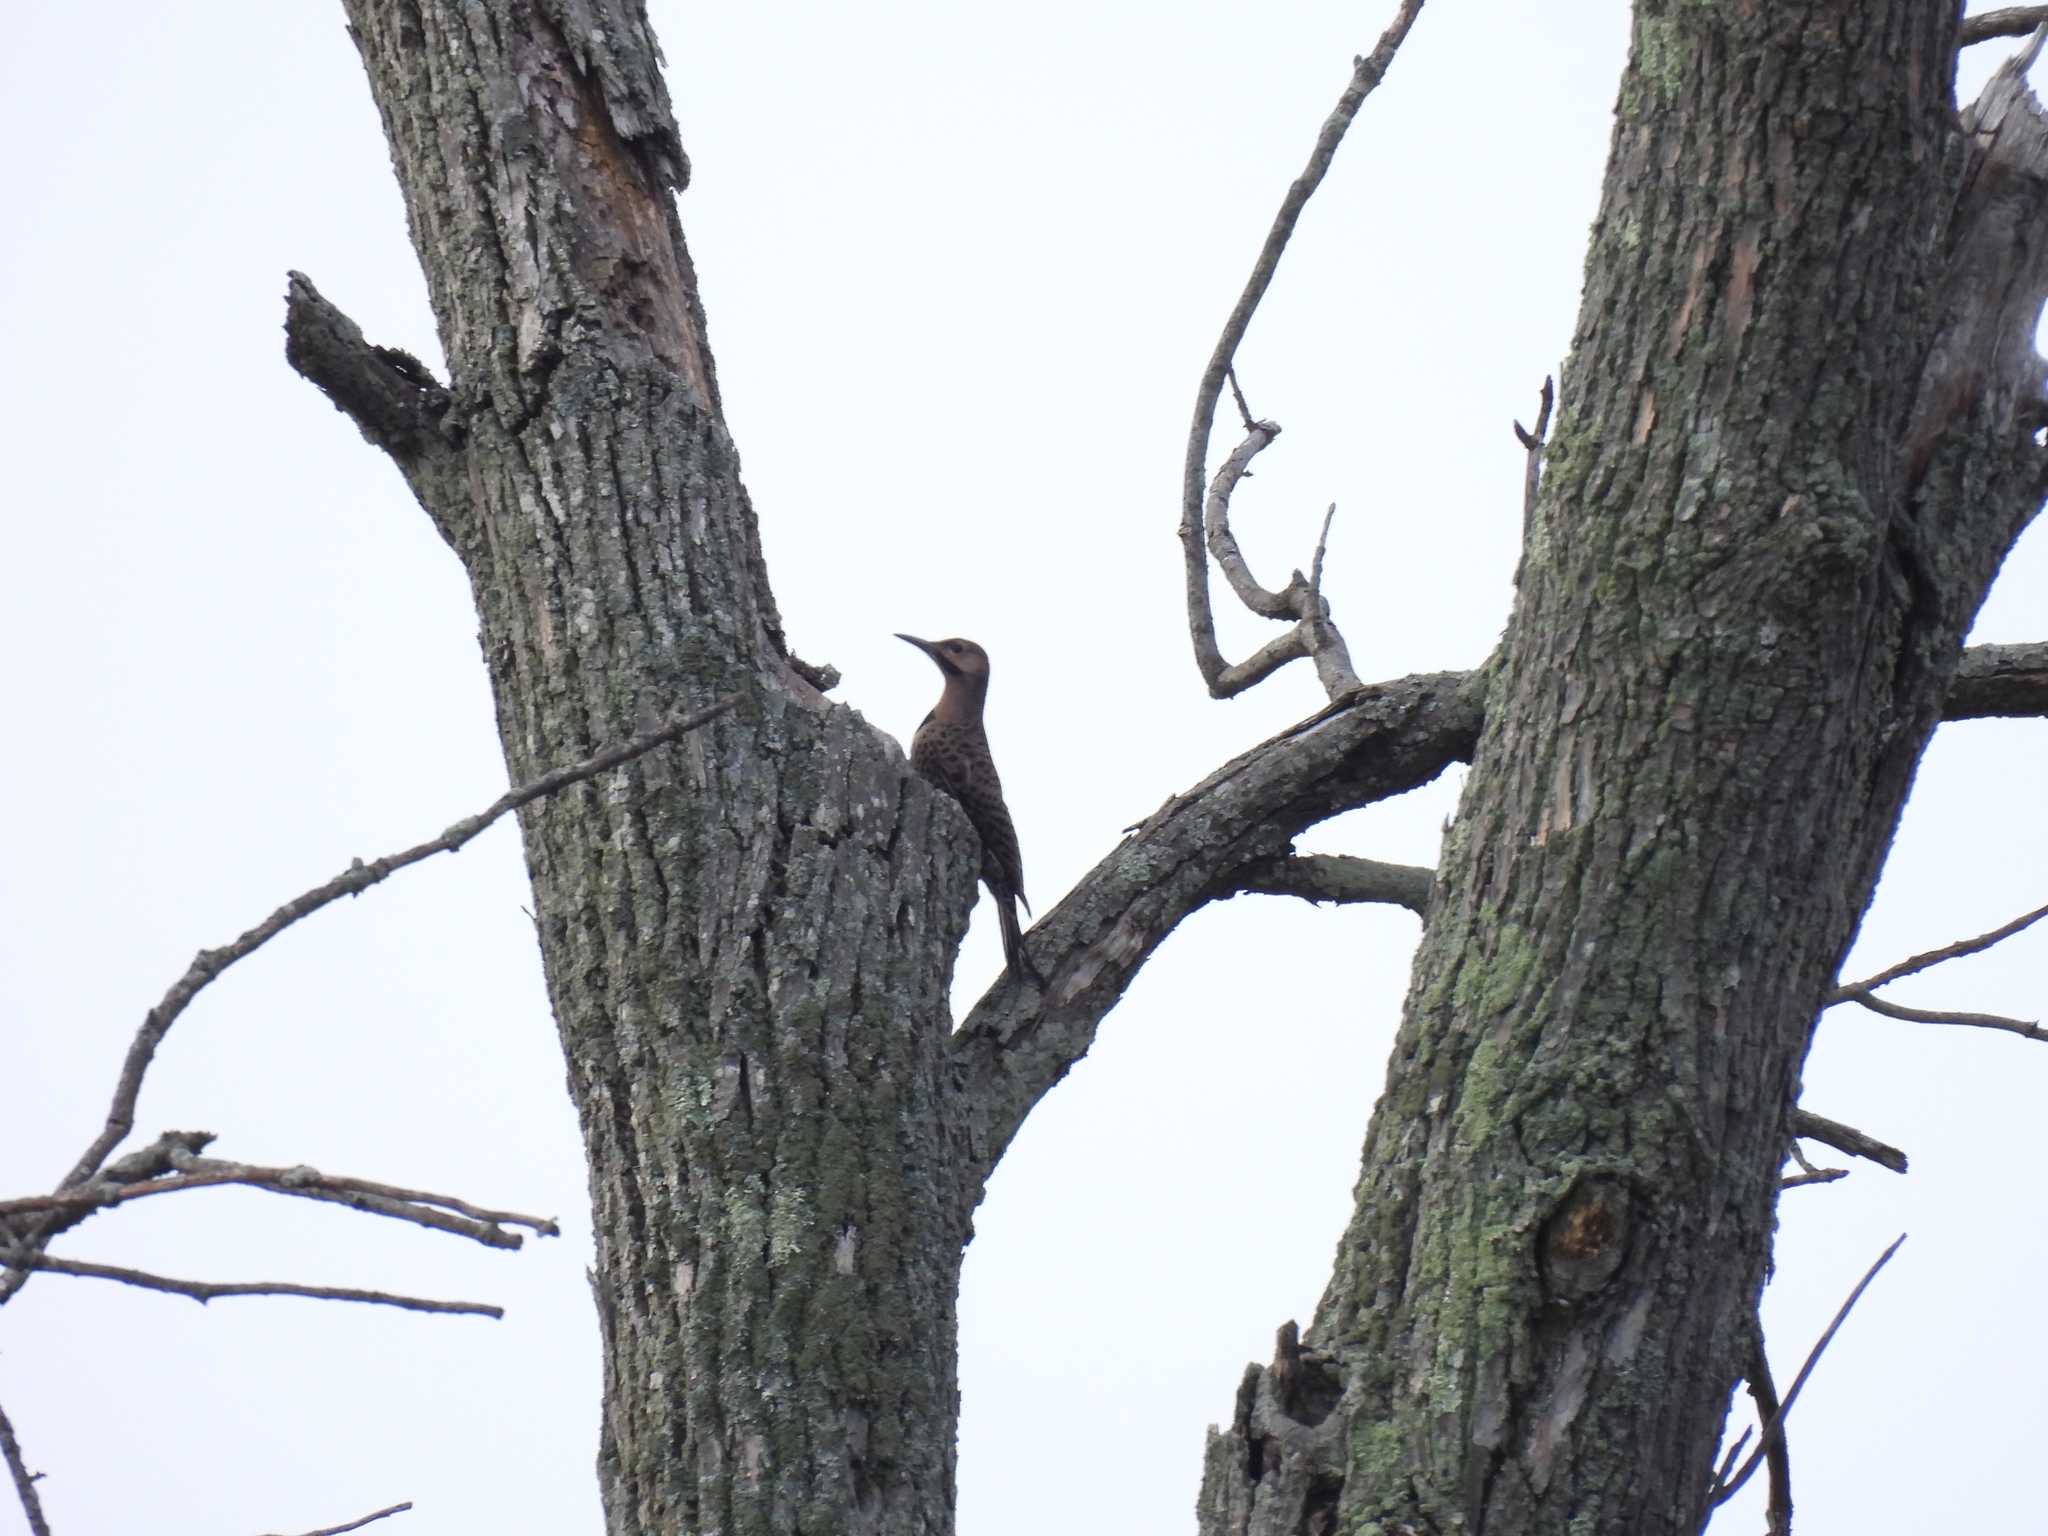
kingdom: Animalia
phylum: Chordata
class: Aves
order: Piciformes
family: Picidae
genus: Colaptes
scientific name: Colaptes auratus
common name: Northern flicker
